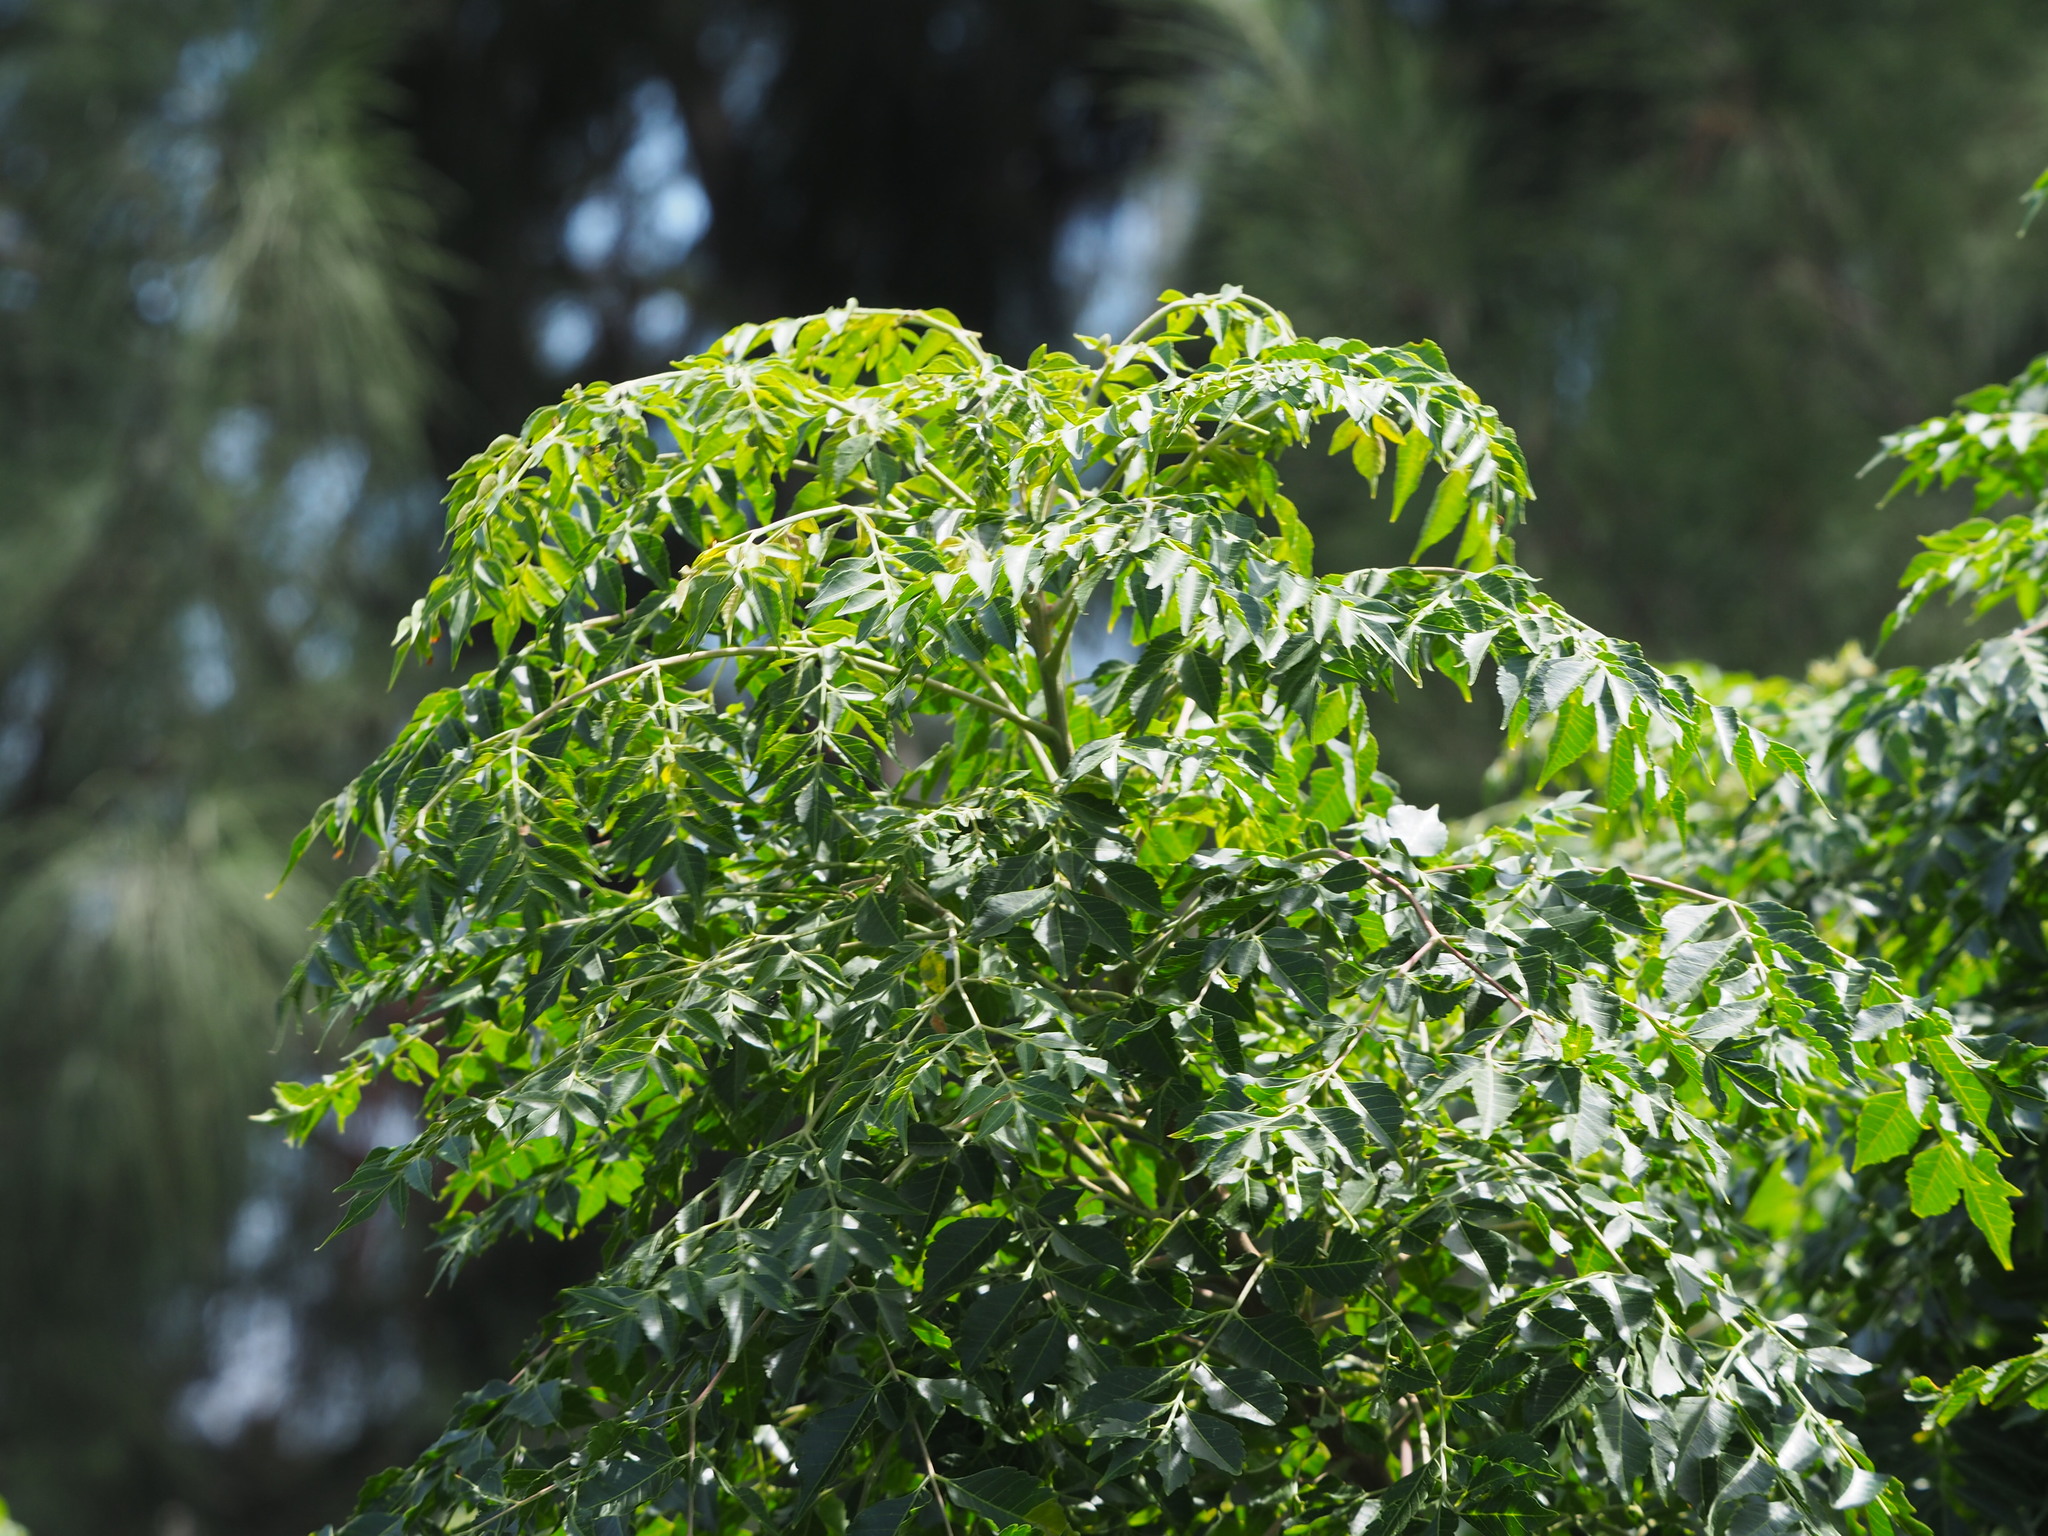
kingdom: Plantae
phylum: Tracheophyta
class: Magnoliopsida
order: Sapindales
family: Meliaceae
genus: Melia
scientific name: Melia azedarach
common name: Chinaberrytree
